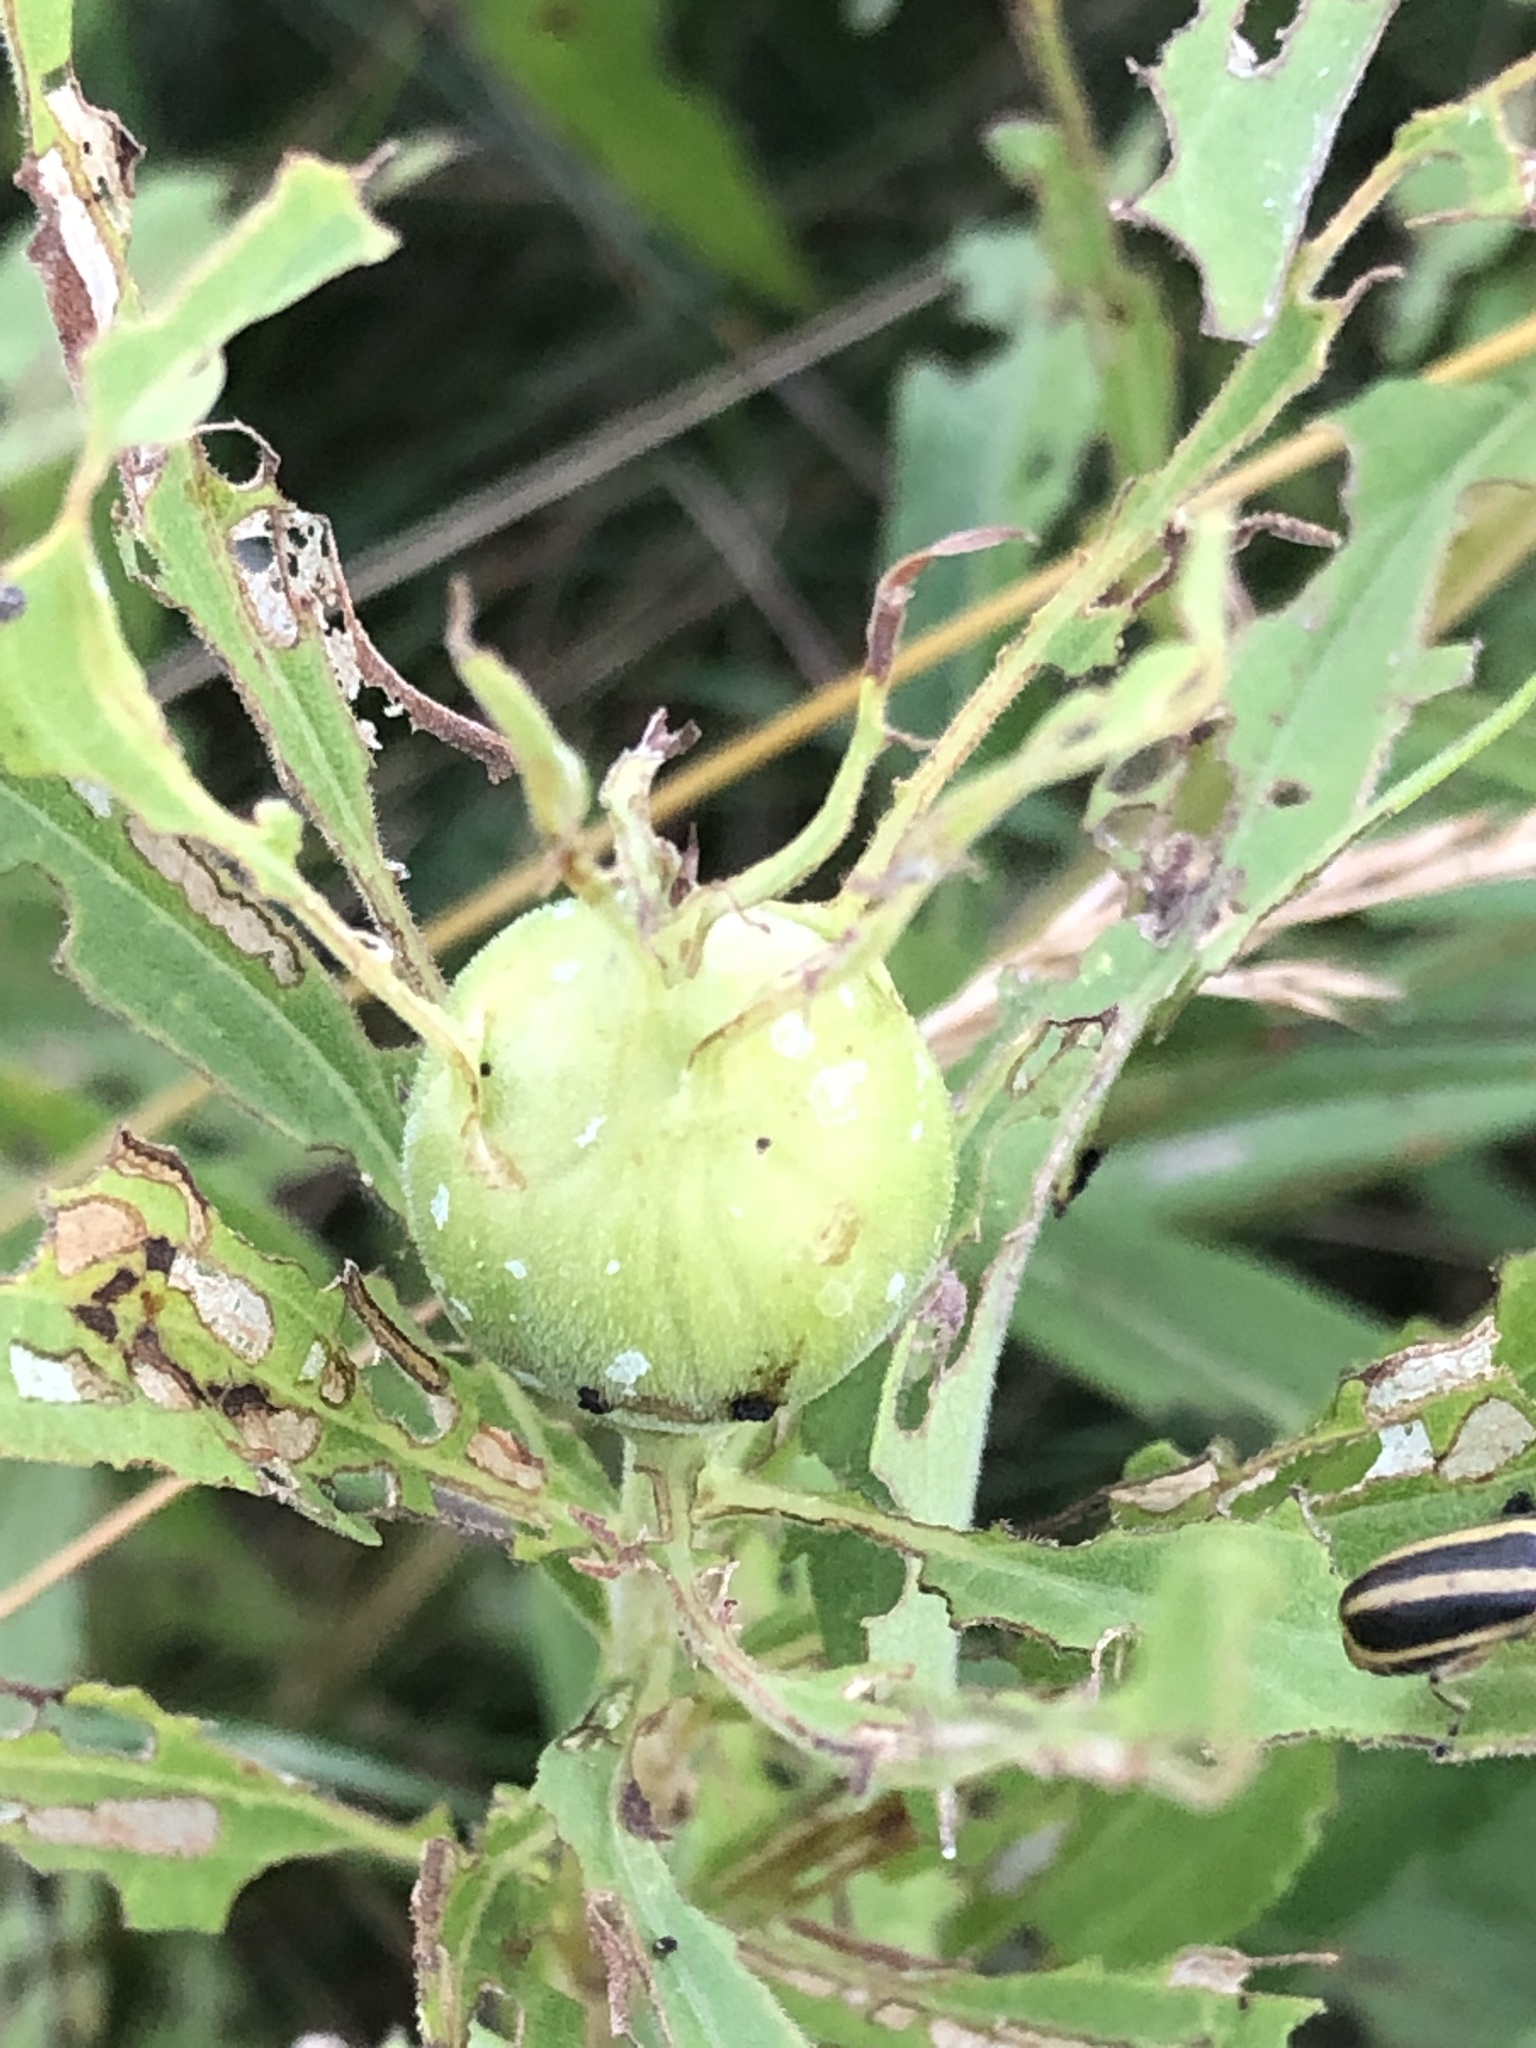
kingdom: Animalia
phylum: Arthropoda
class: Insecta
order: Diptera
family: Tephritidae
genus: Eurosta
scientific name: Eurosta solidaginis
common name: Goldenrod gall fly
